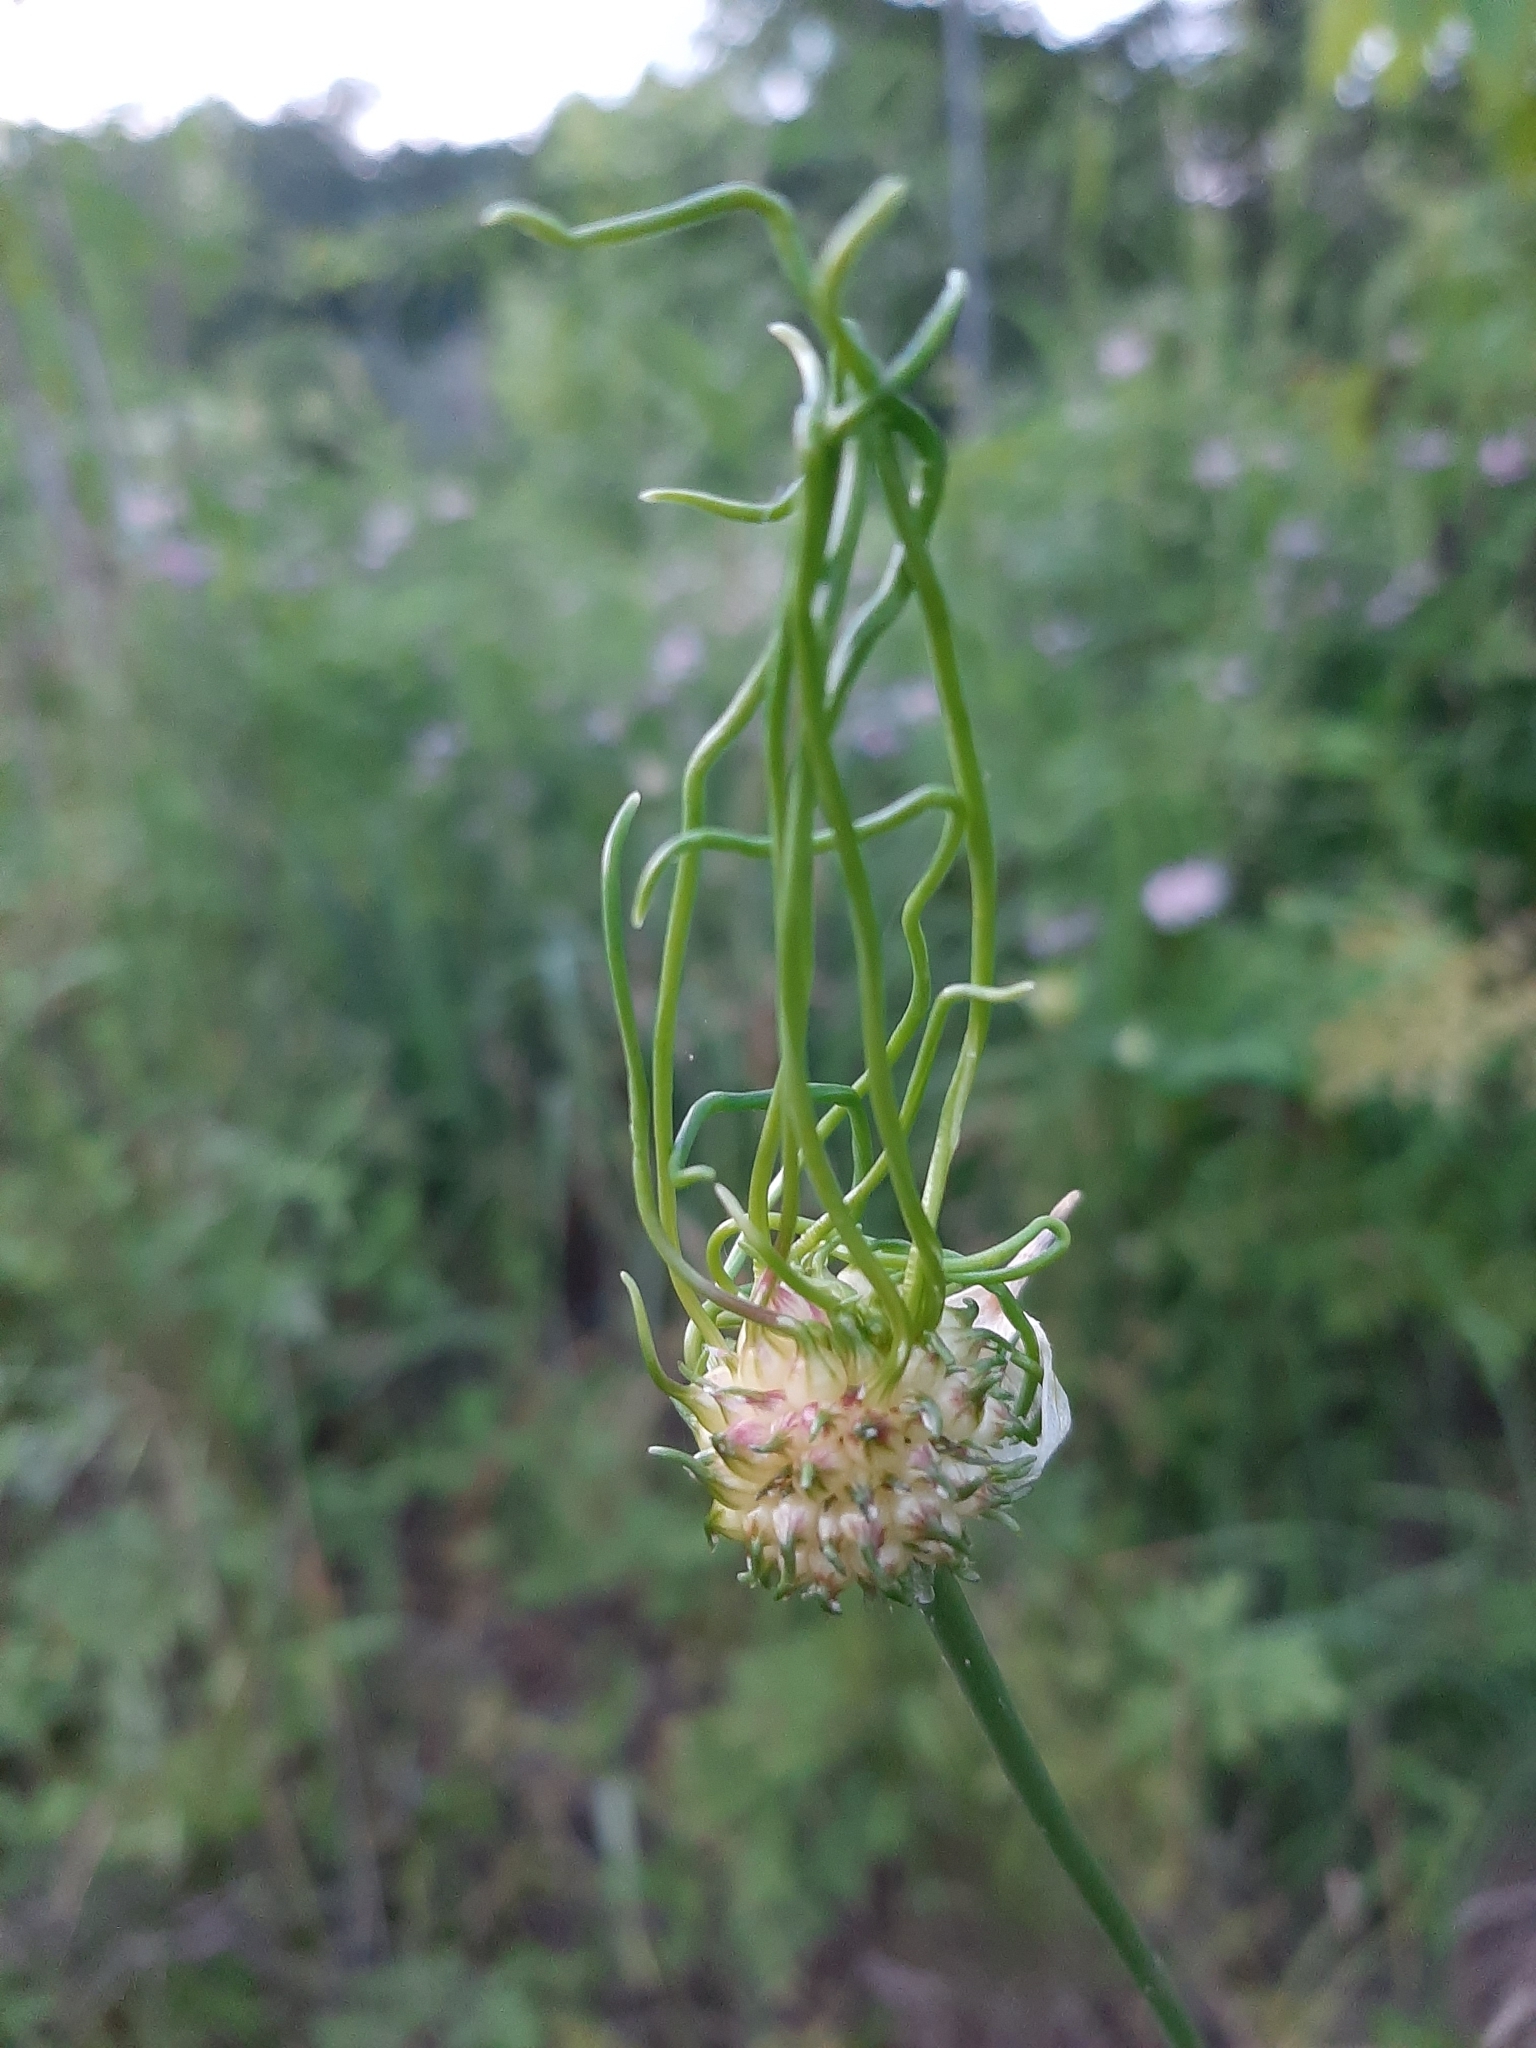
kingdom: Plantae
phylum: Tracheophyta
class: Liliopsida
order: Asparagales
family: Amaryllidaceae
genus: Allium
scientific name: Allium vineale
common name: Crow garlic
